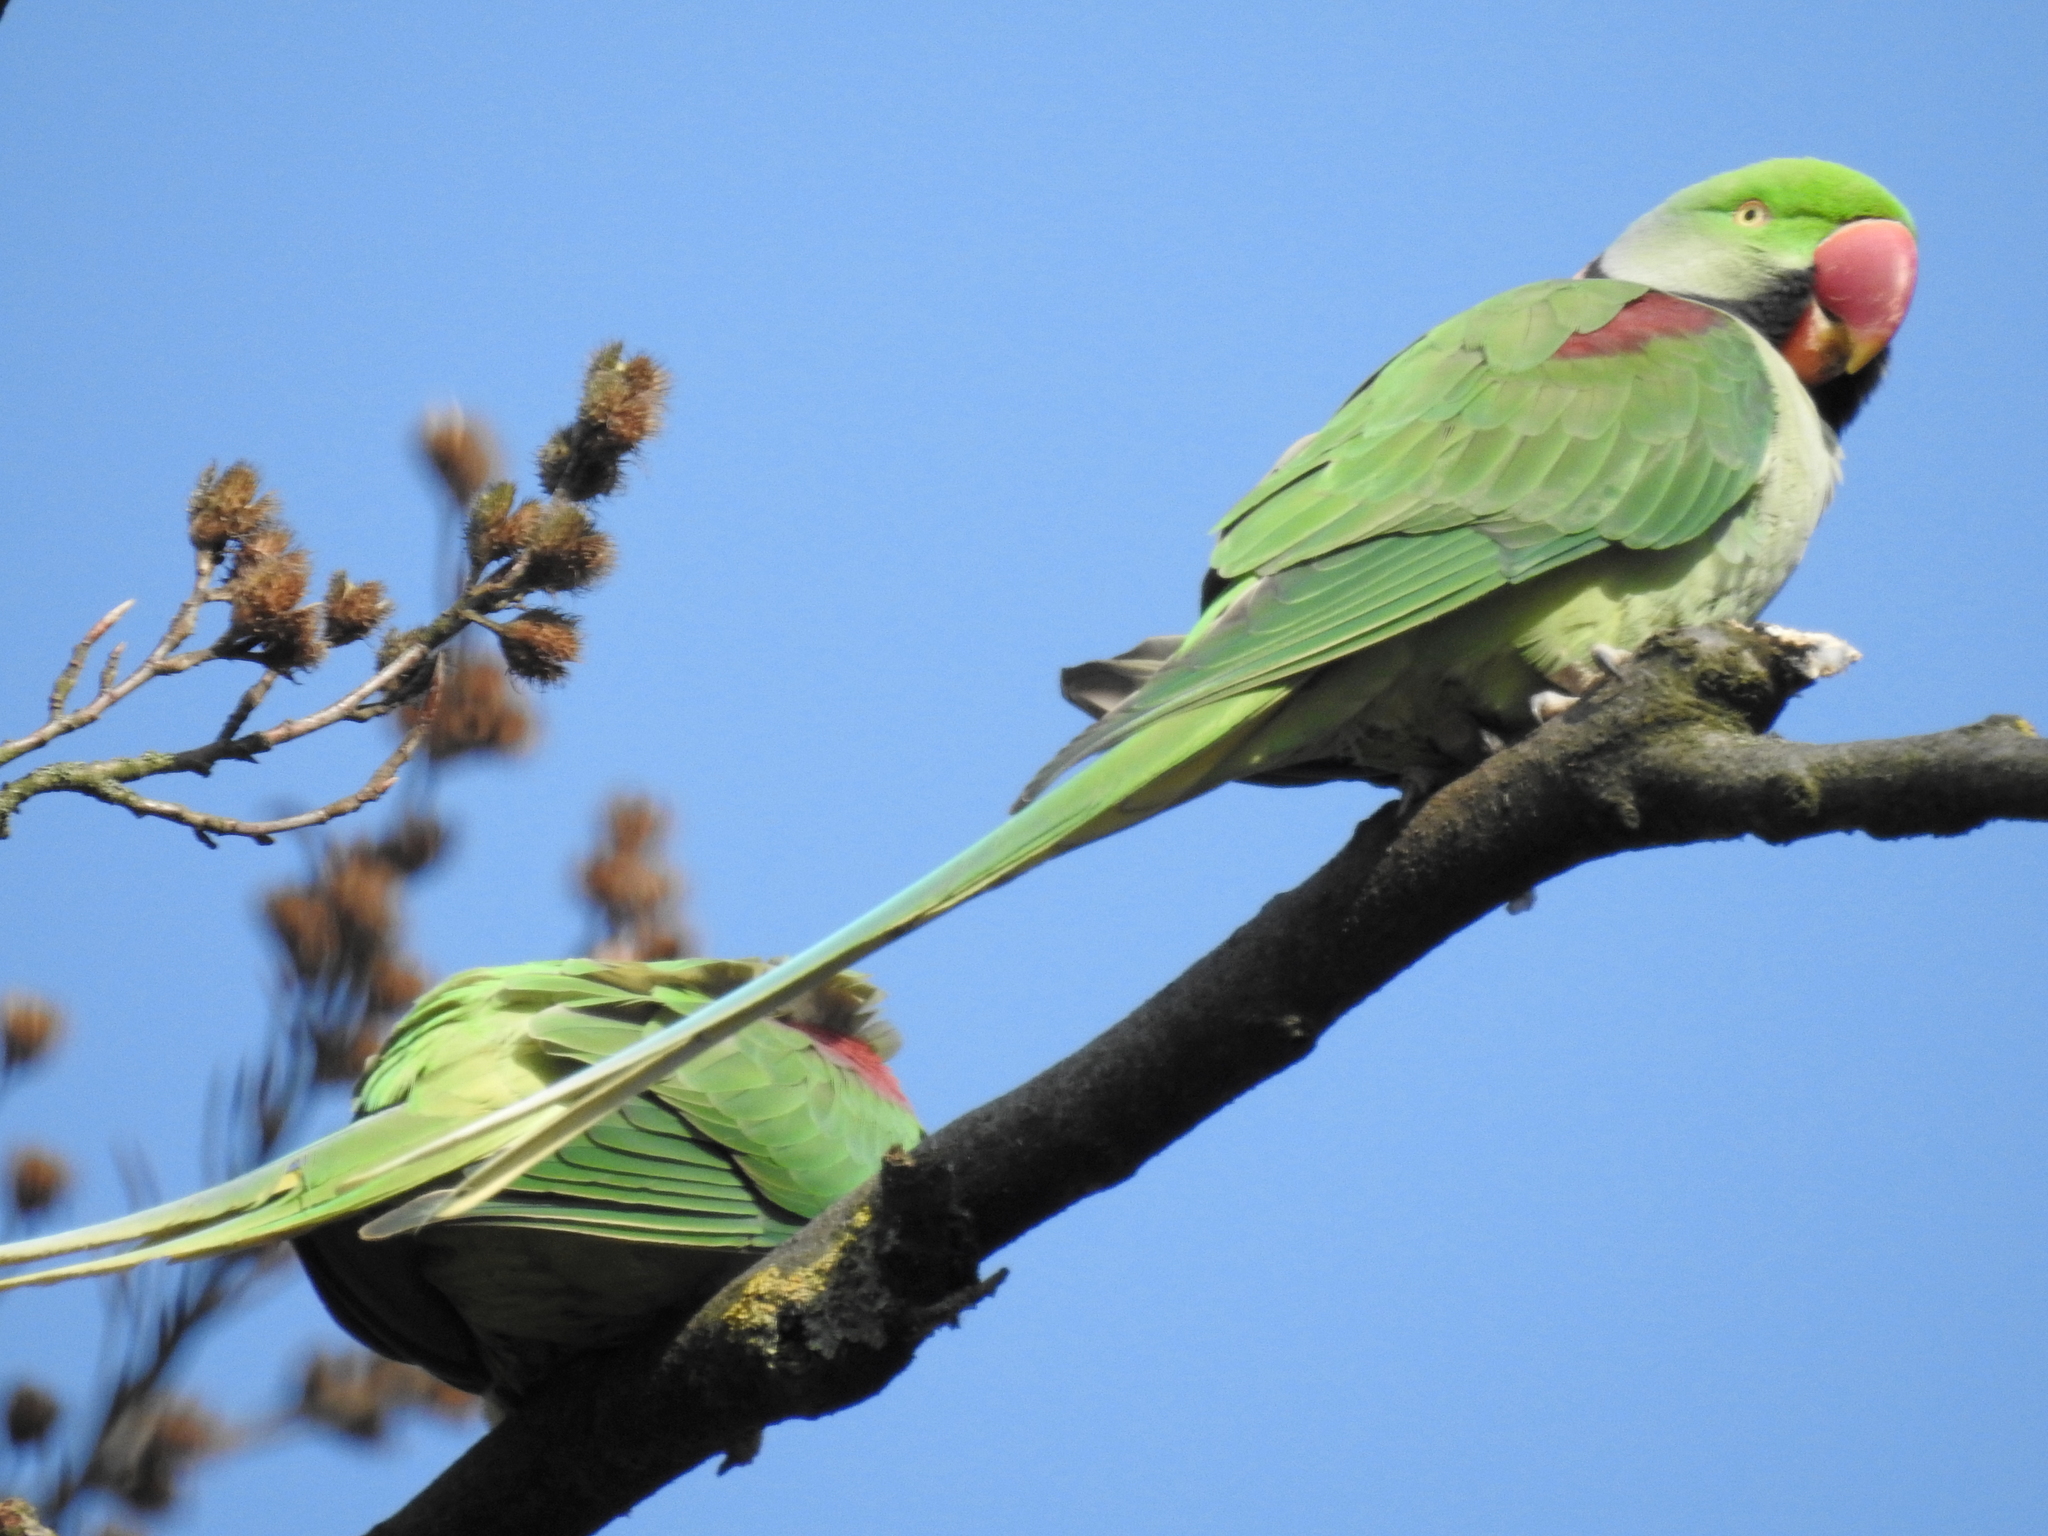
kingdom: Animalia
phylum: Chordata
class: Aves
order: Psittaciformes
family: Psittacidae
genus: Psittacula
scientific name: Psittacula eupatria
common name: Alexandrine parakeet
